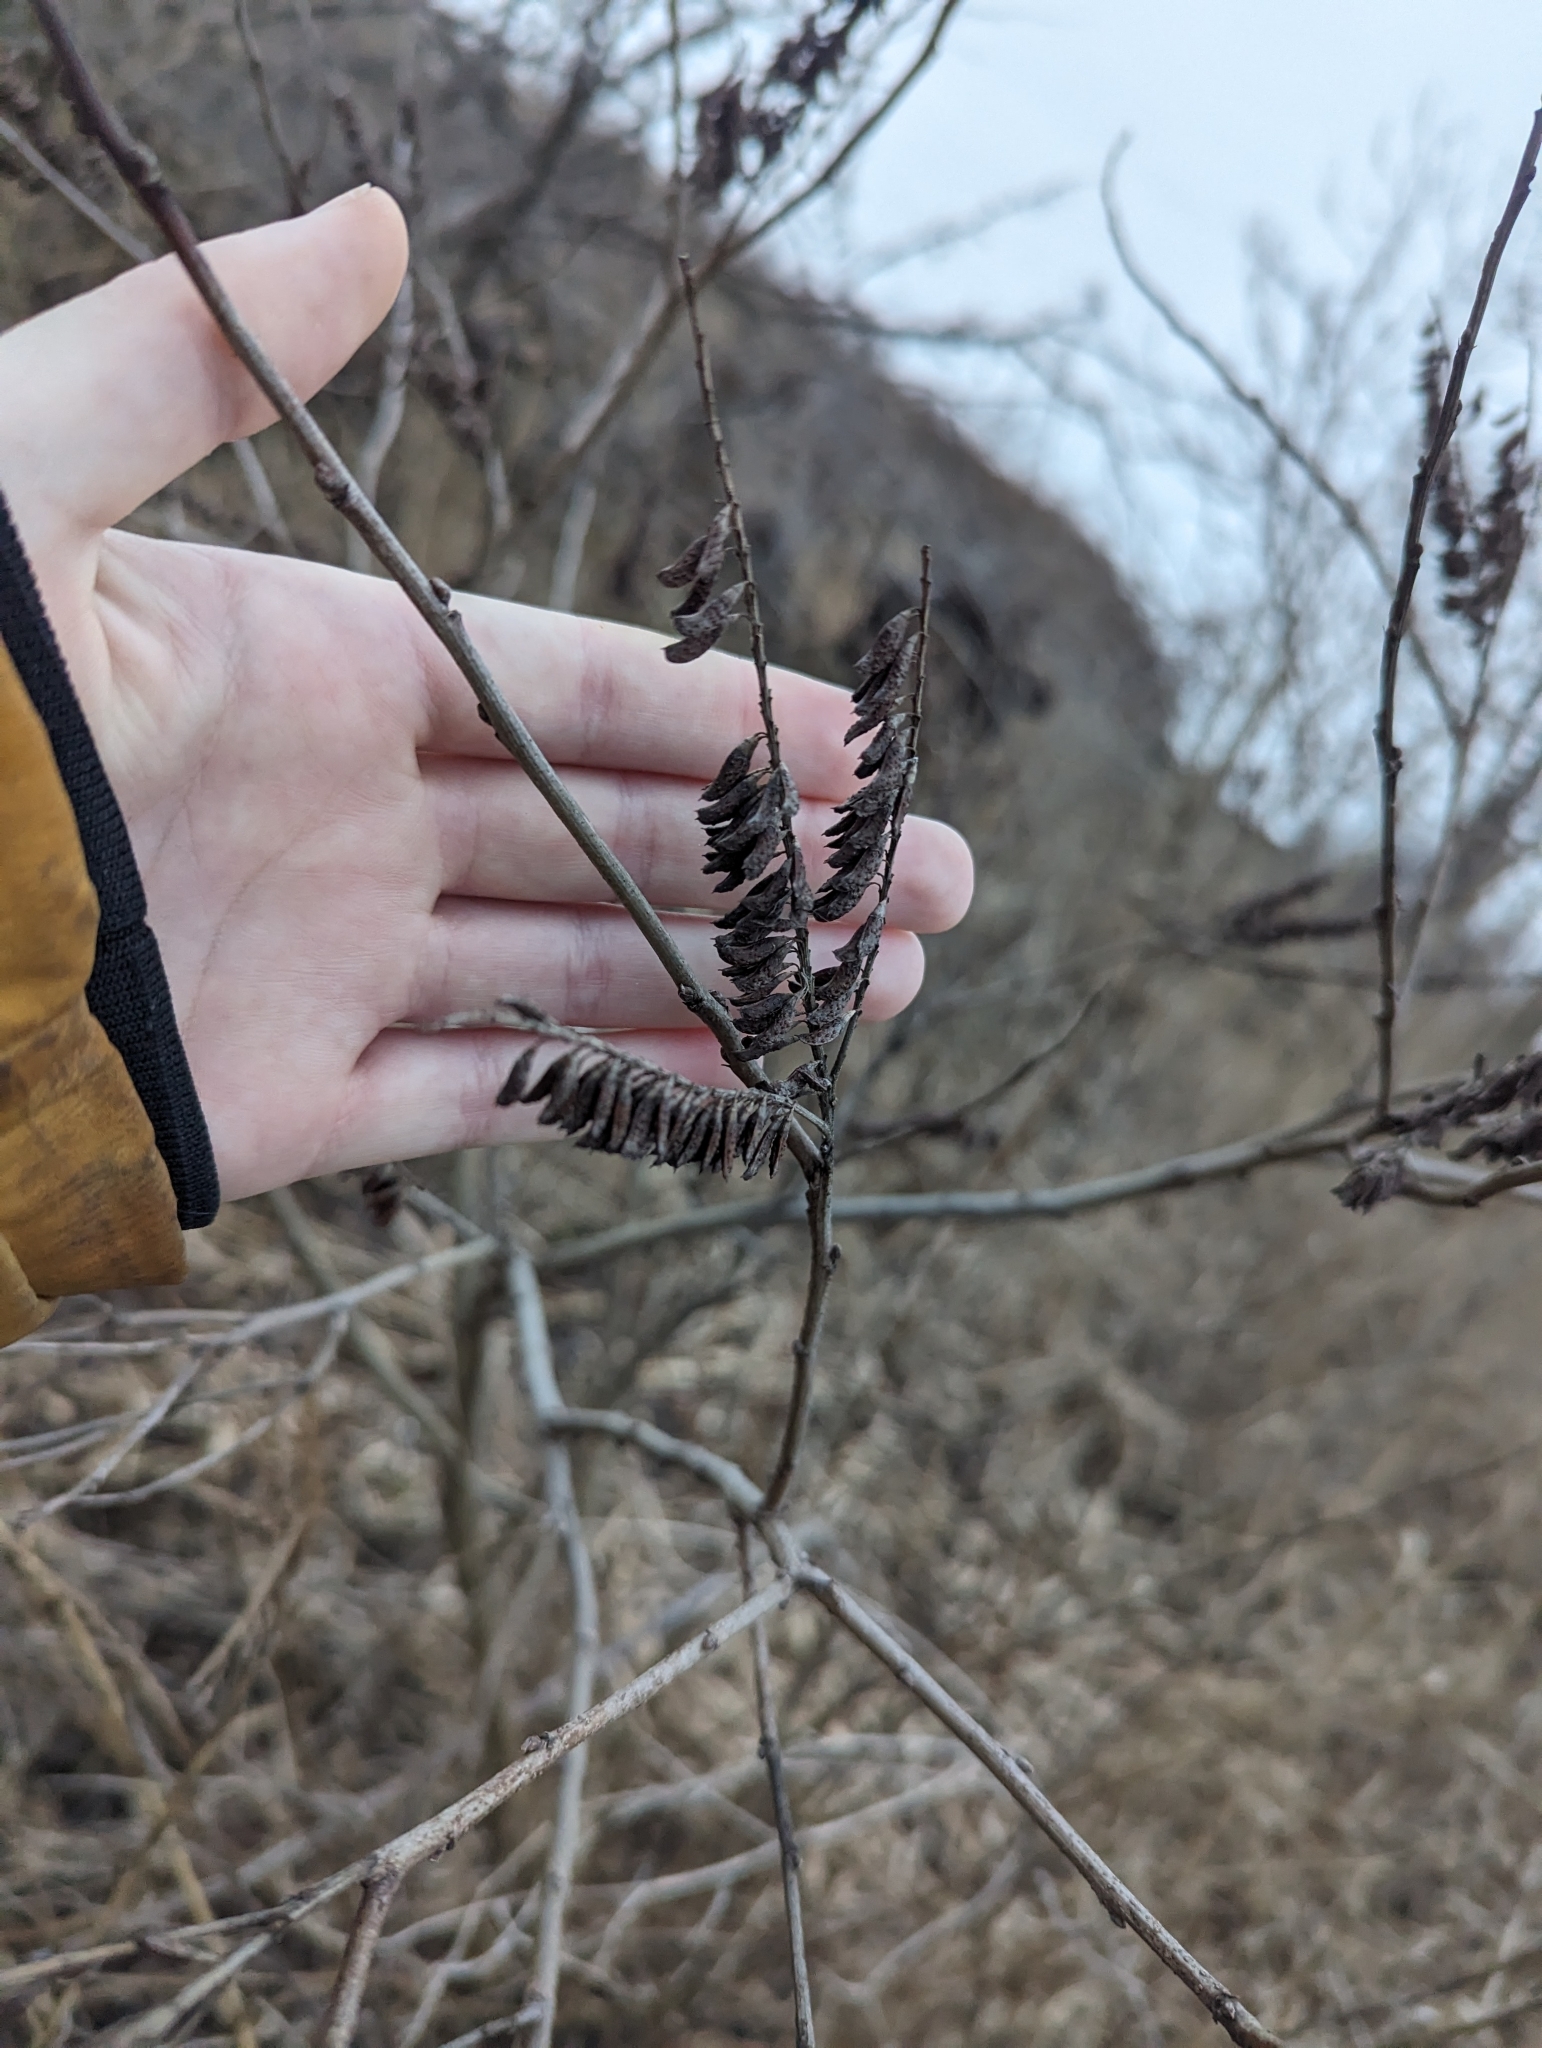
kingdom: Plantae
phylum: Tracheophyta
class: Magnoliopsida
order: Fabales
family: Fabaceae
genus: Amorpha
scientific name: Amorpha fruticosa
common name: False indigo
